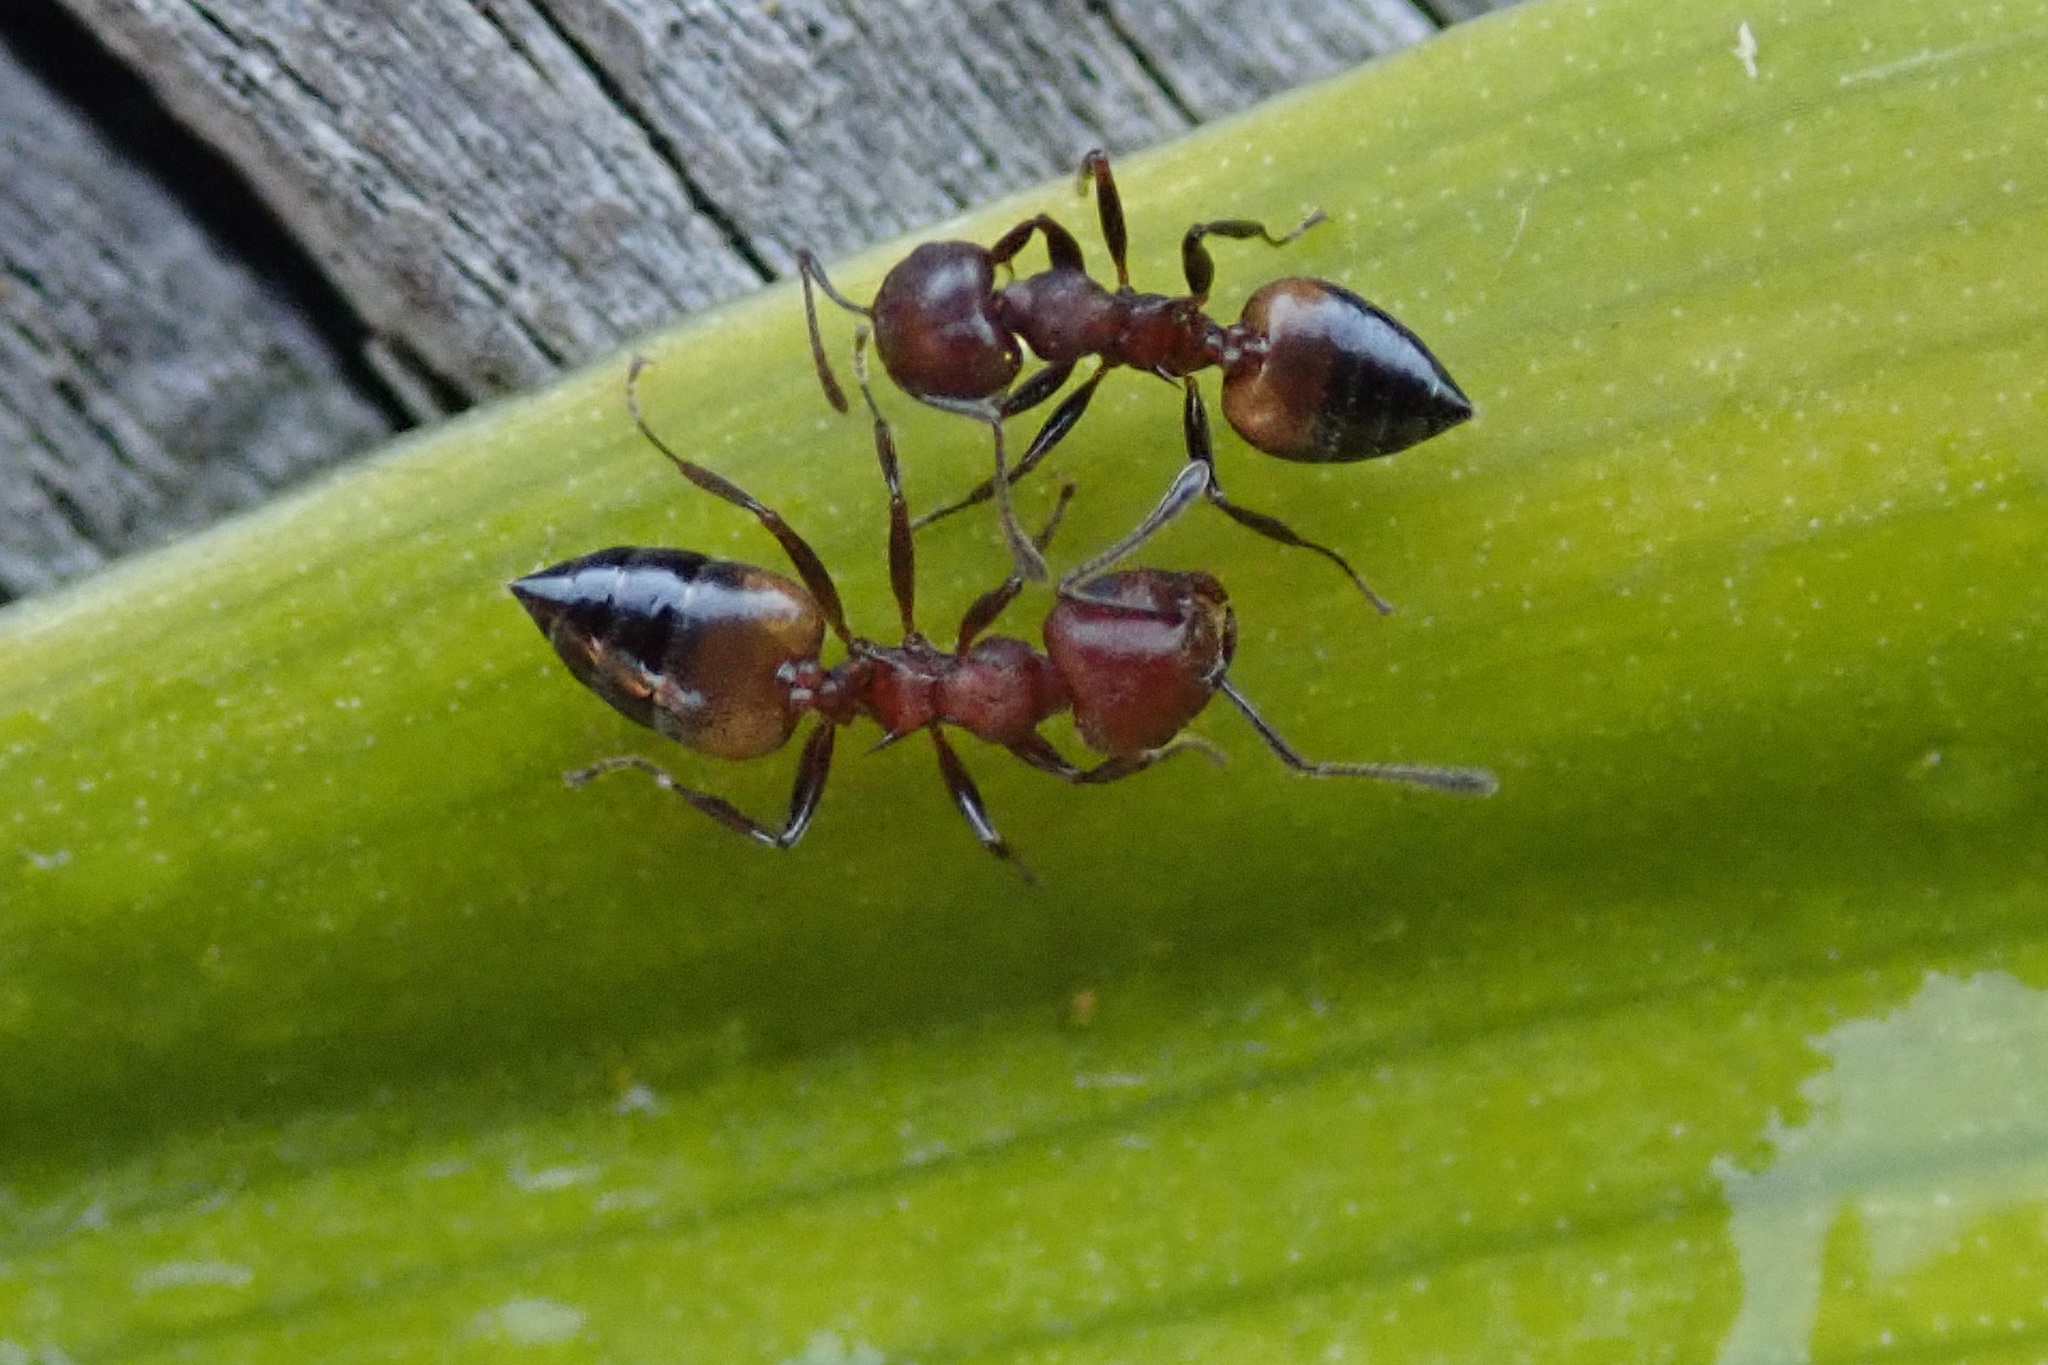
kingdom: Animalia
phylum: Arthropoda
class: Insecta
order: Hymenoptera
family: Formicidae
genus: Crematogaster
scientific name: Crematogaster castanea
